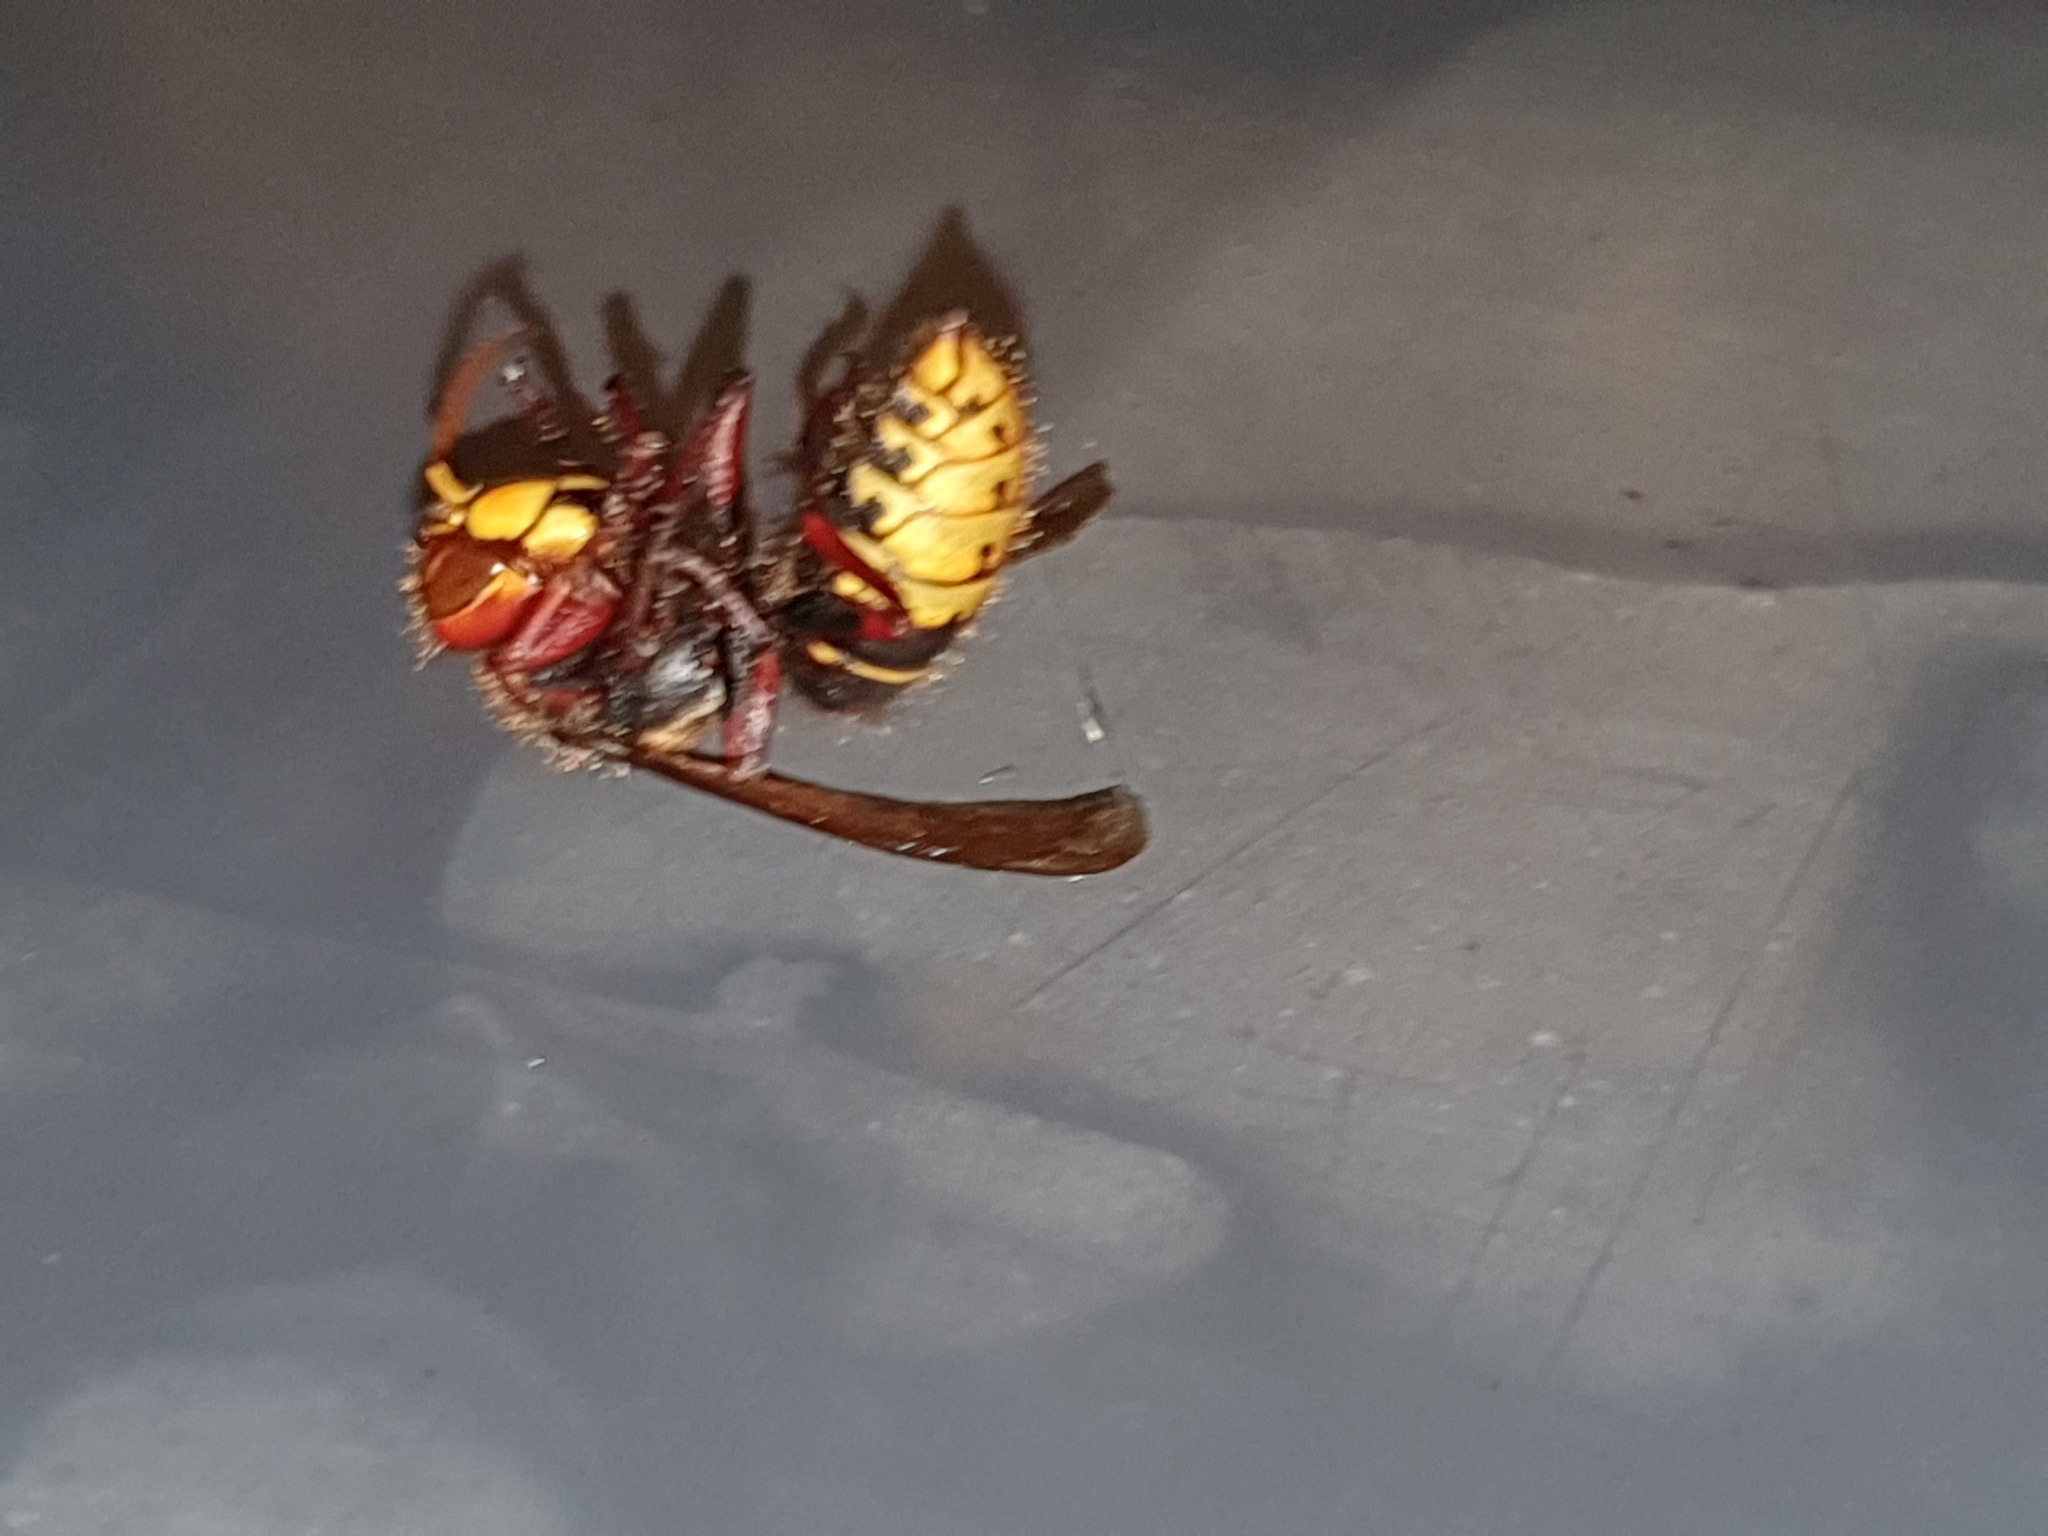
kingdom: Animalia
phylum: Arthropoda
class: Insecta
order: Hymenoptera
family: Vespidae
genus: Vespa
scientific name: Vespa crabro
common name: Hornet
